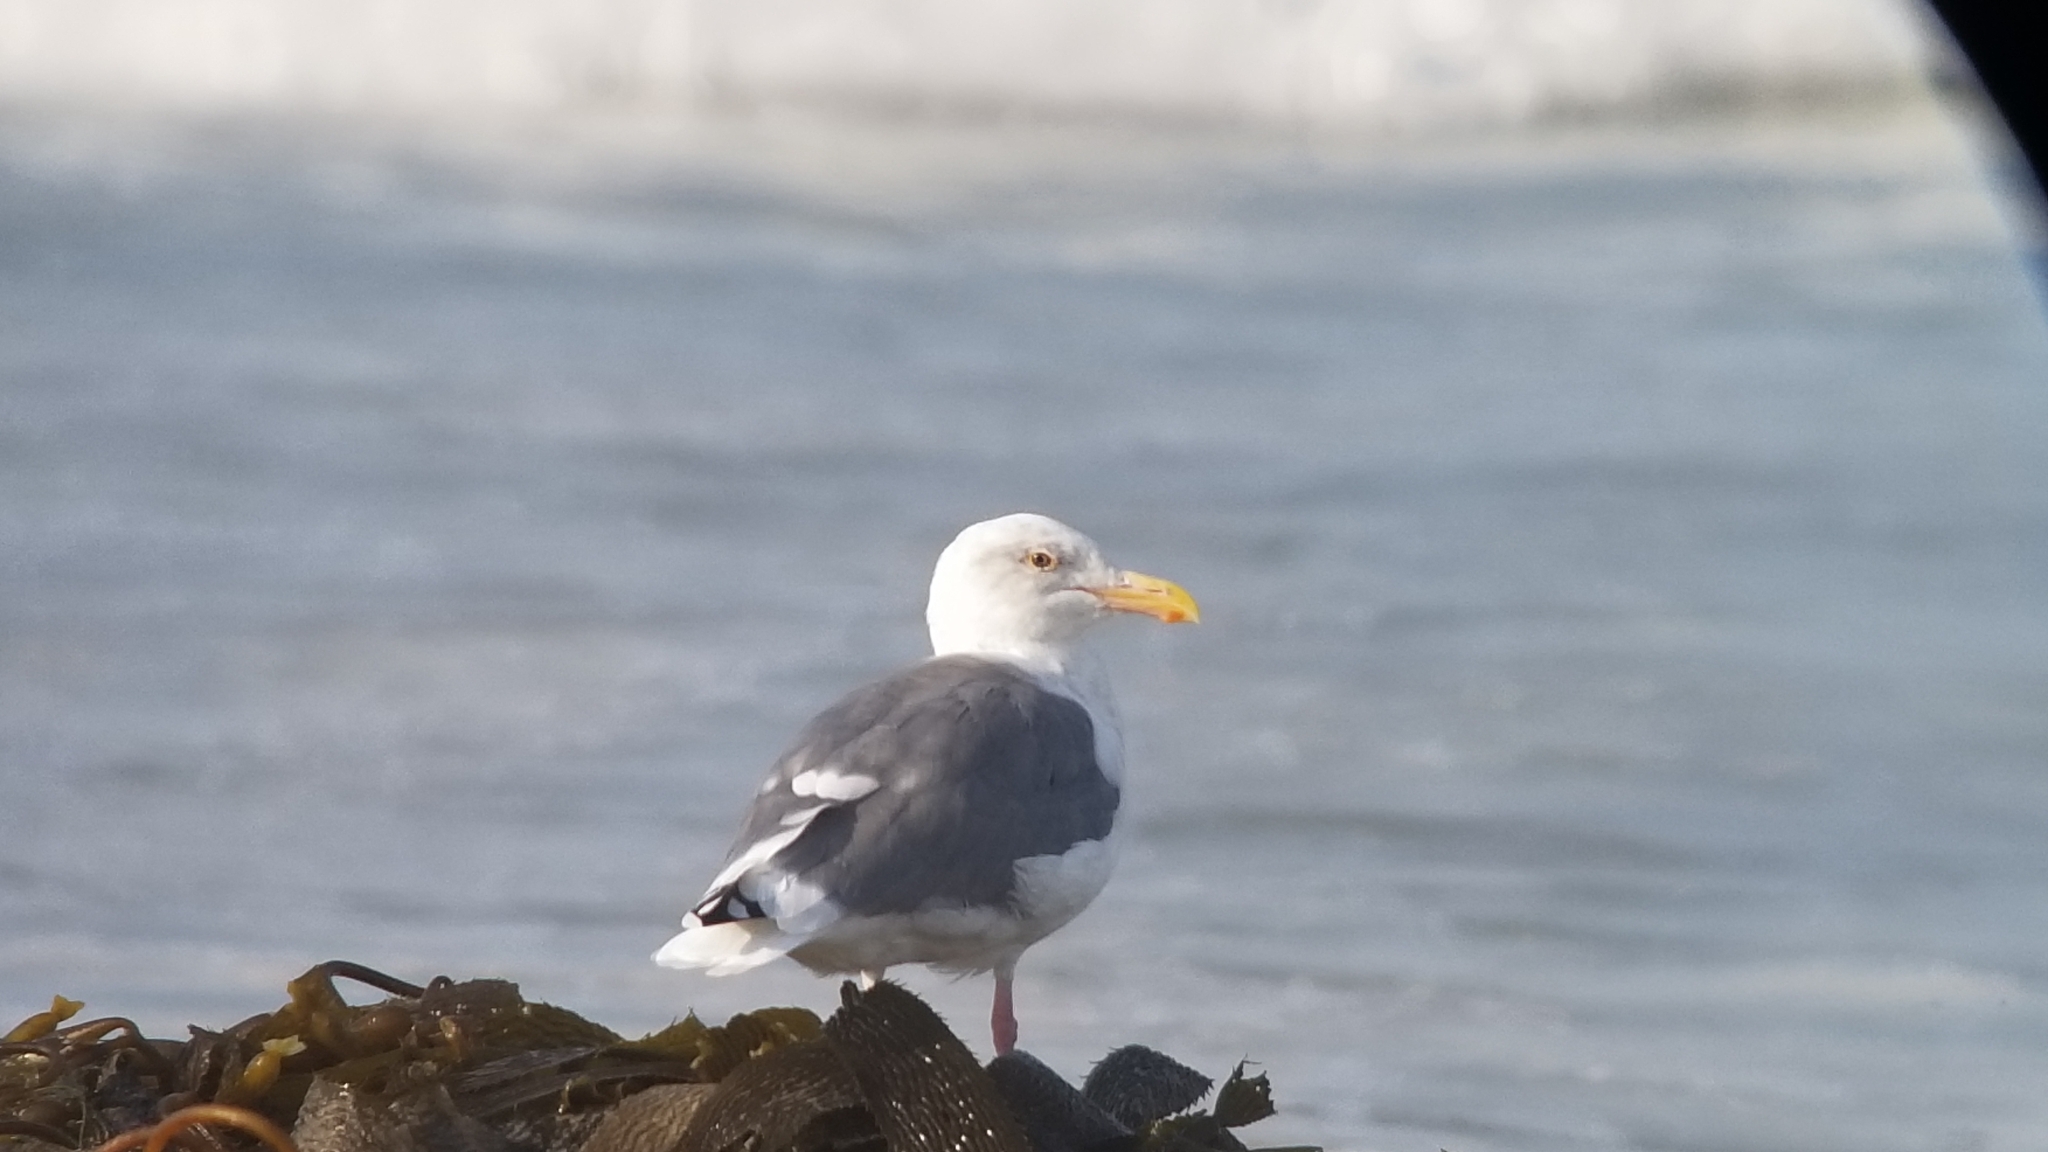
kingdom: Animalia
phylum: Chordata
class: Aves
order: Charadriiformes
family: Laridae
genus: Larus
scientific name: Larus occidentalis
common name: Western gull
